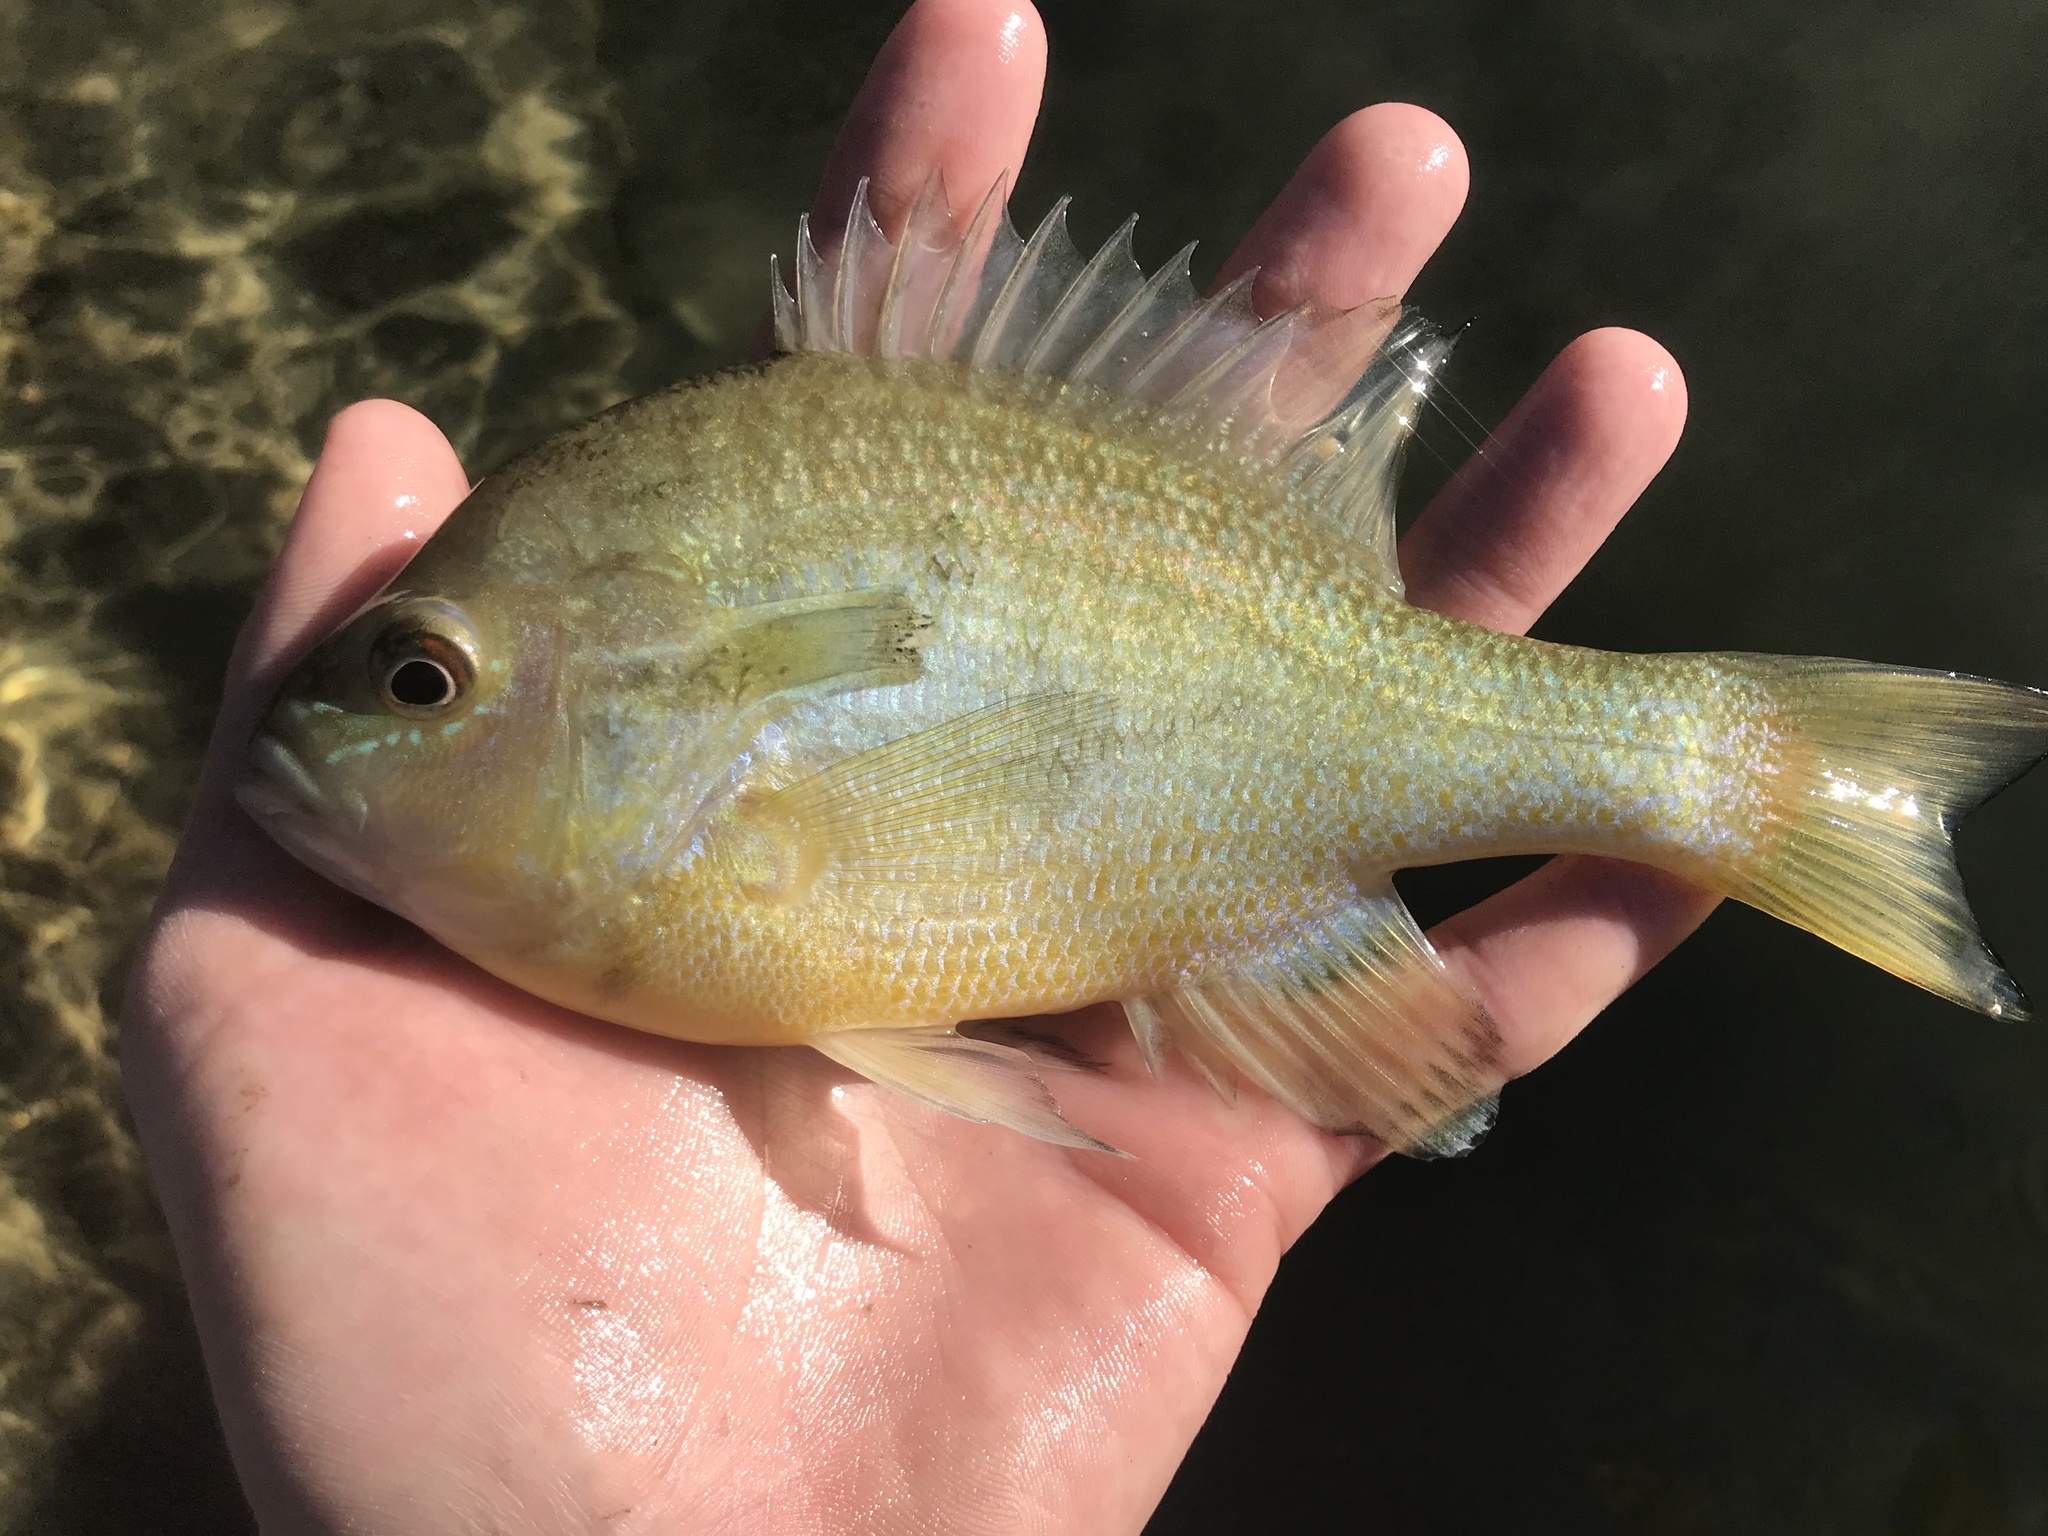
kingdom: Animalia
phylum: Chordata
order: Perciformes
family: Centrarchidae
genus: Lepomis
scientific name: Lepomis auritus
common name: Redbreast sunfish
